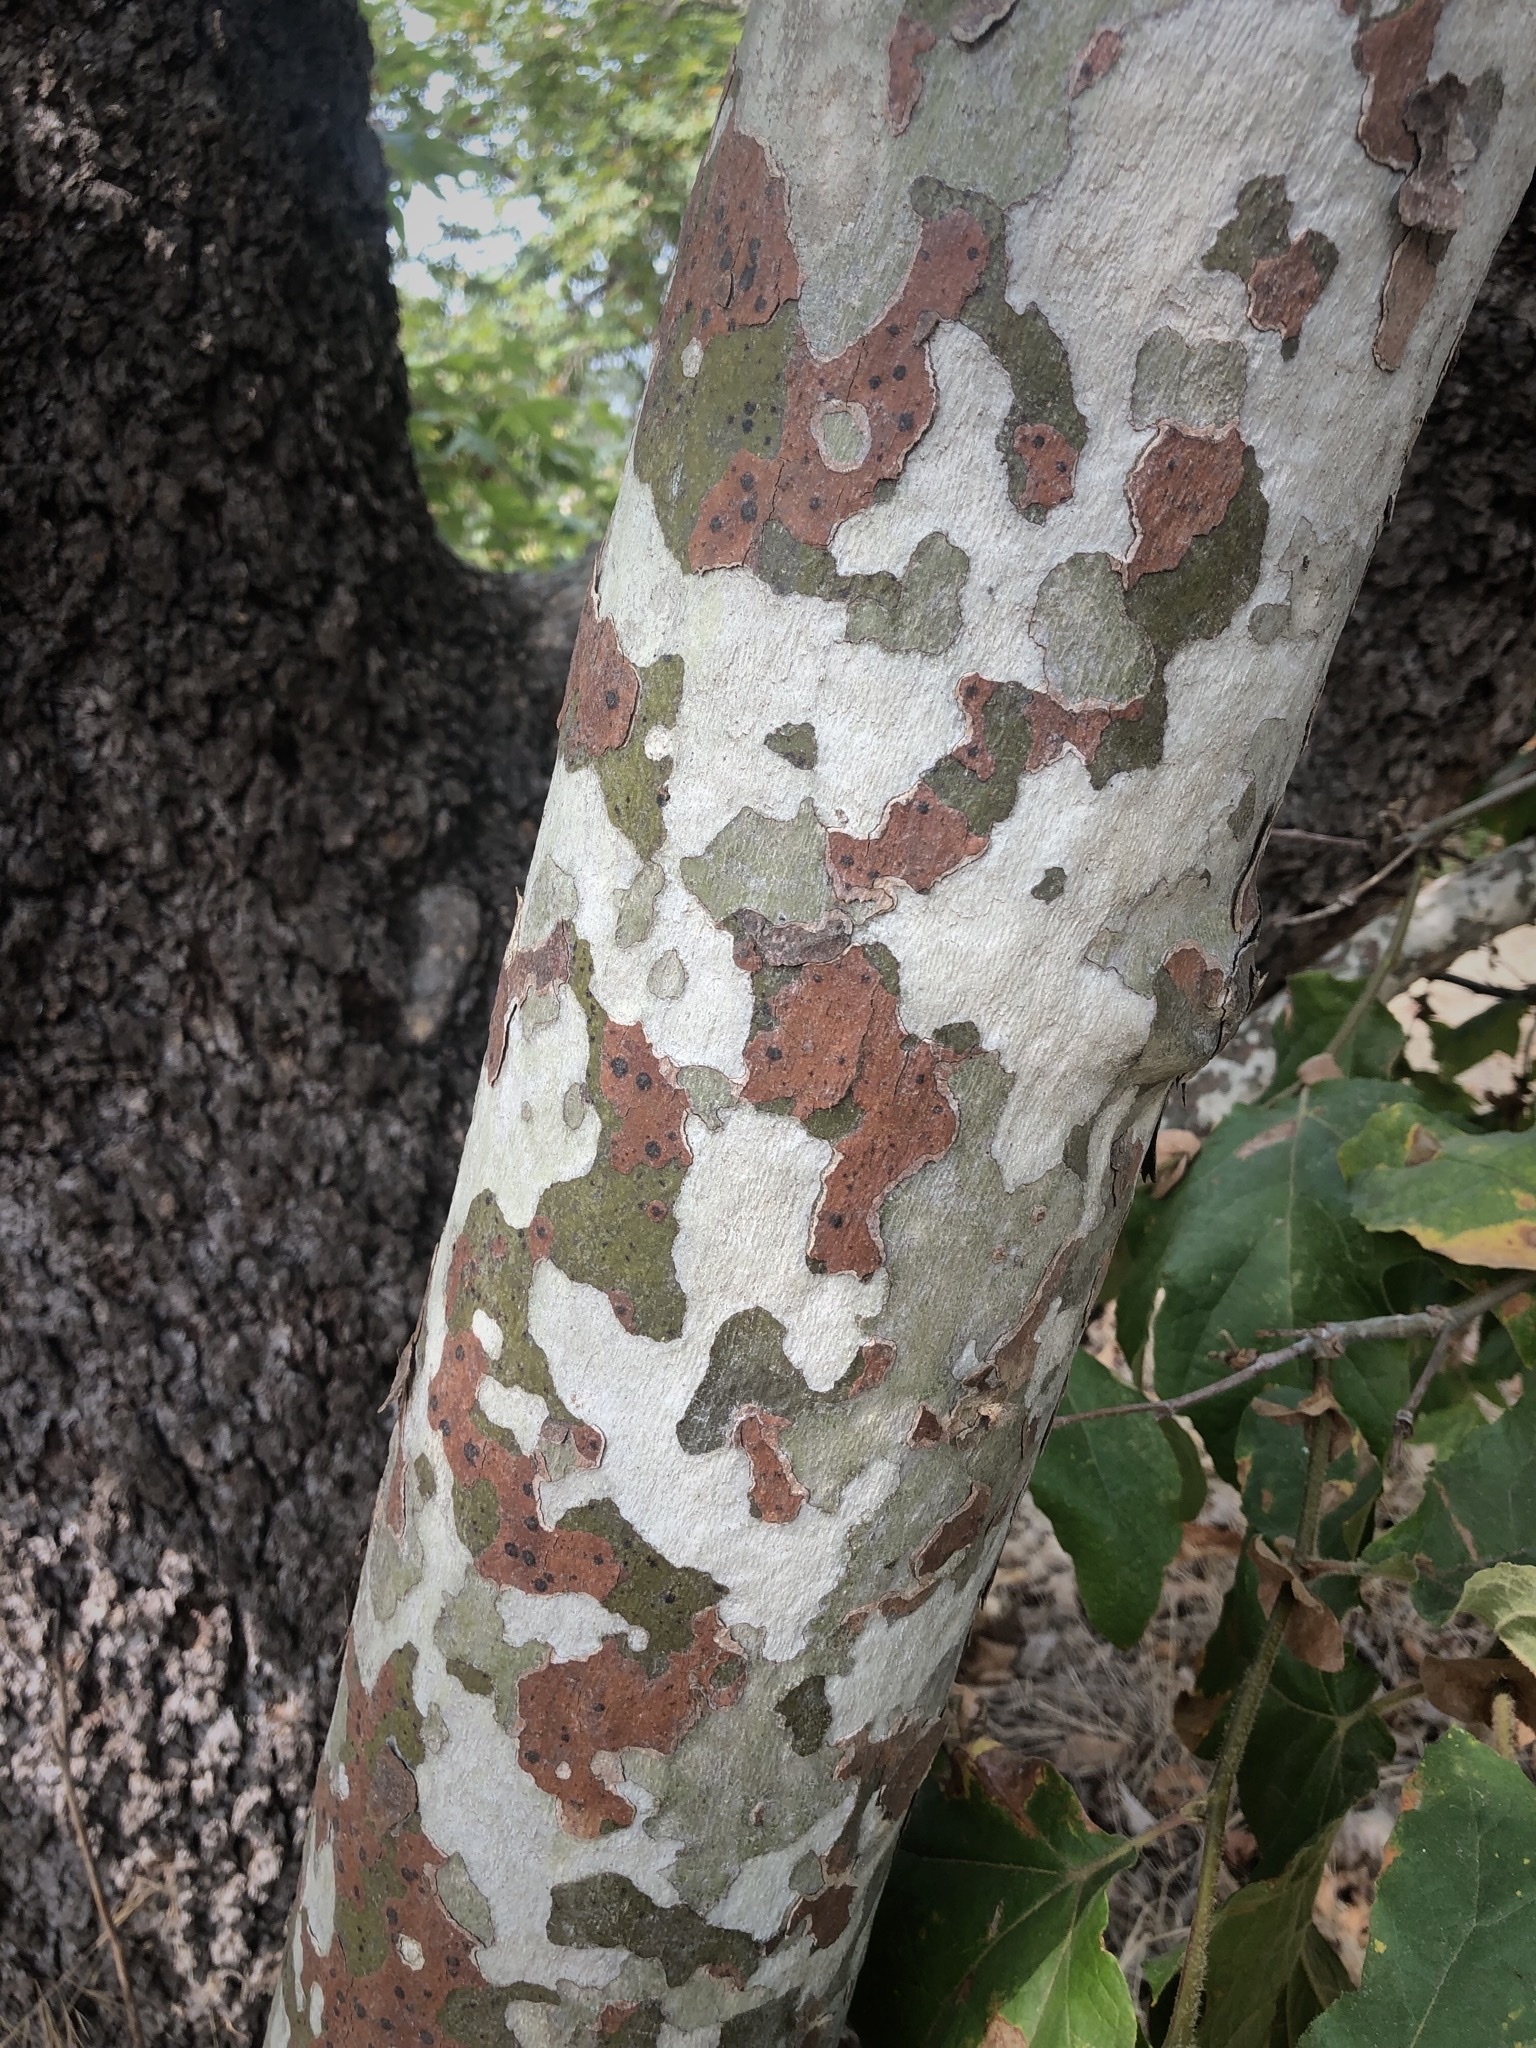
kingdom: Plantae
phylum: Tracheophyta
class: Magnoliopsida
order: Proteales
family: Platanaceae
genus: Platanus
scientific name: Platanus racemosa
